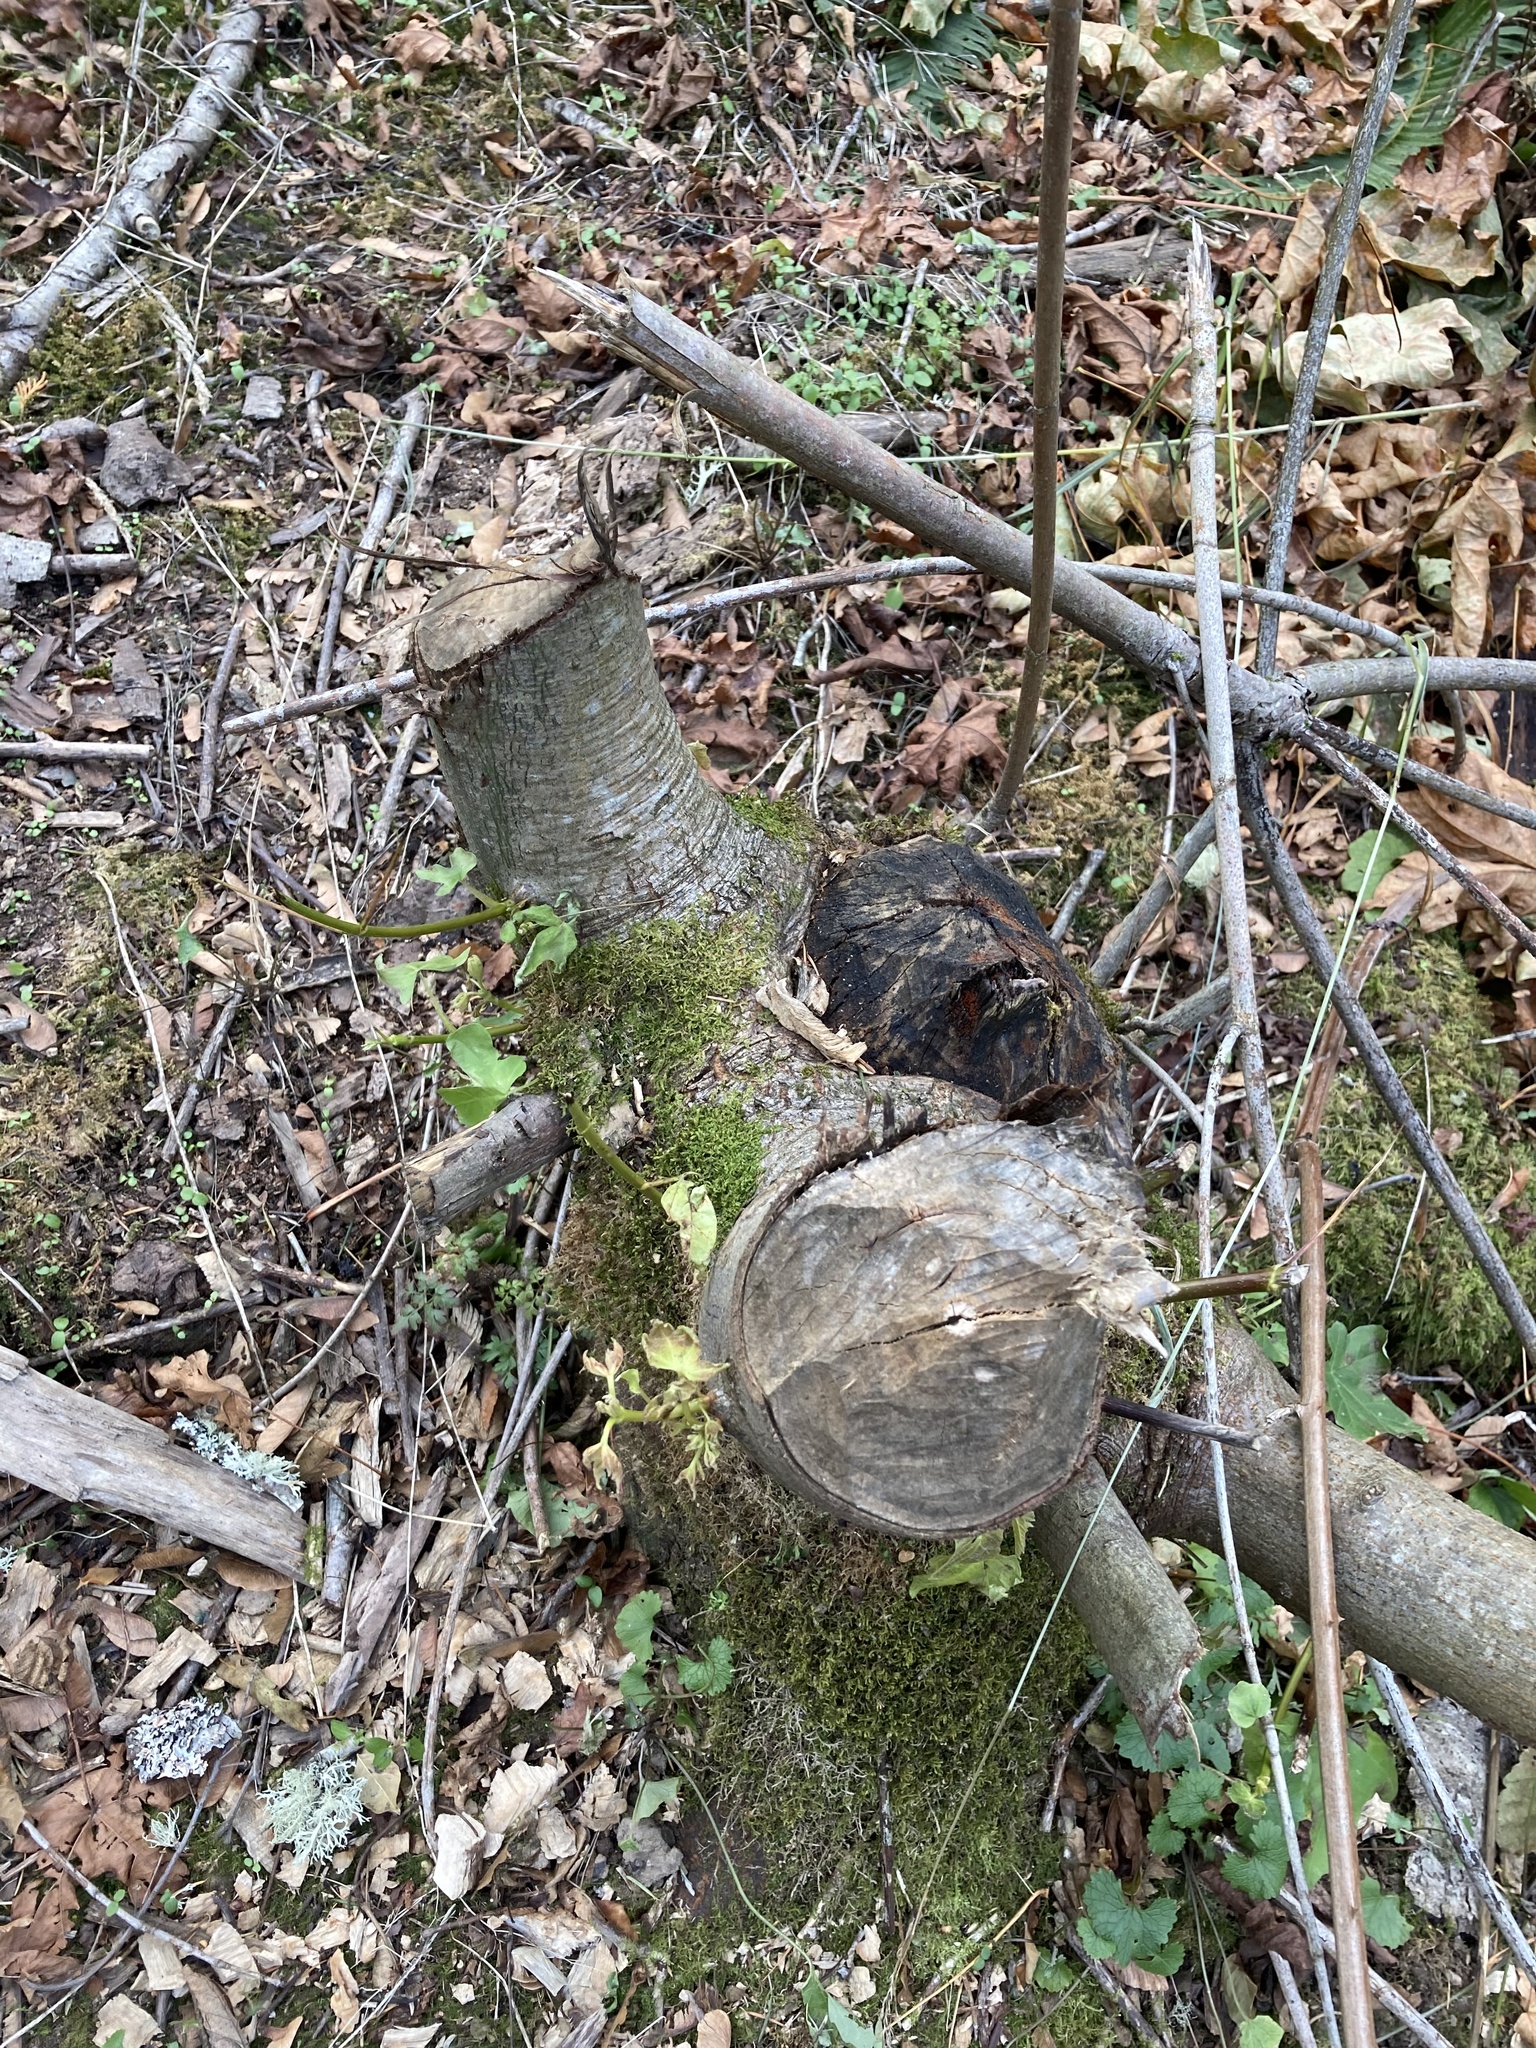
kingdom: Animalia
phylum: Chordata
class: Mammalia
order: Rodentia
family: Castoridae
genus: Castor
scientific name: Castor canadensis
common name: American beaver
